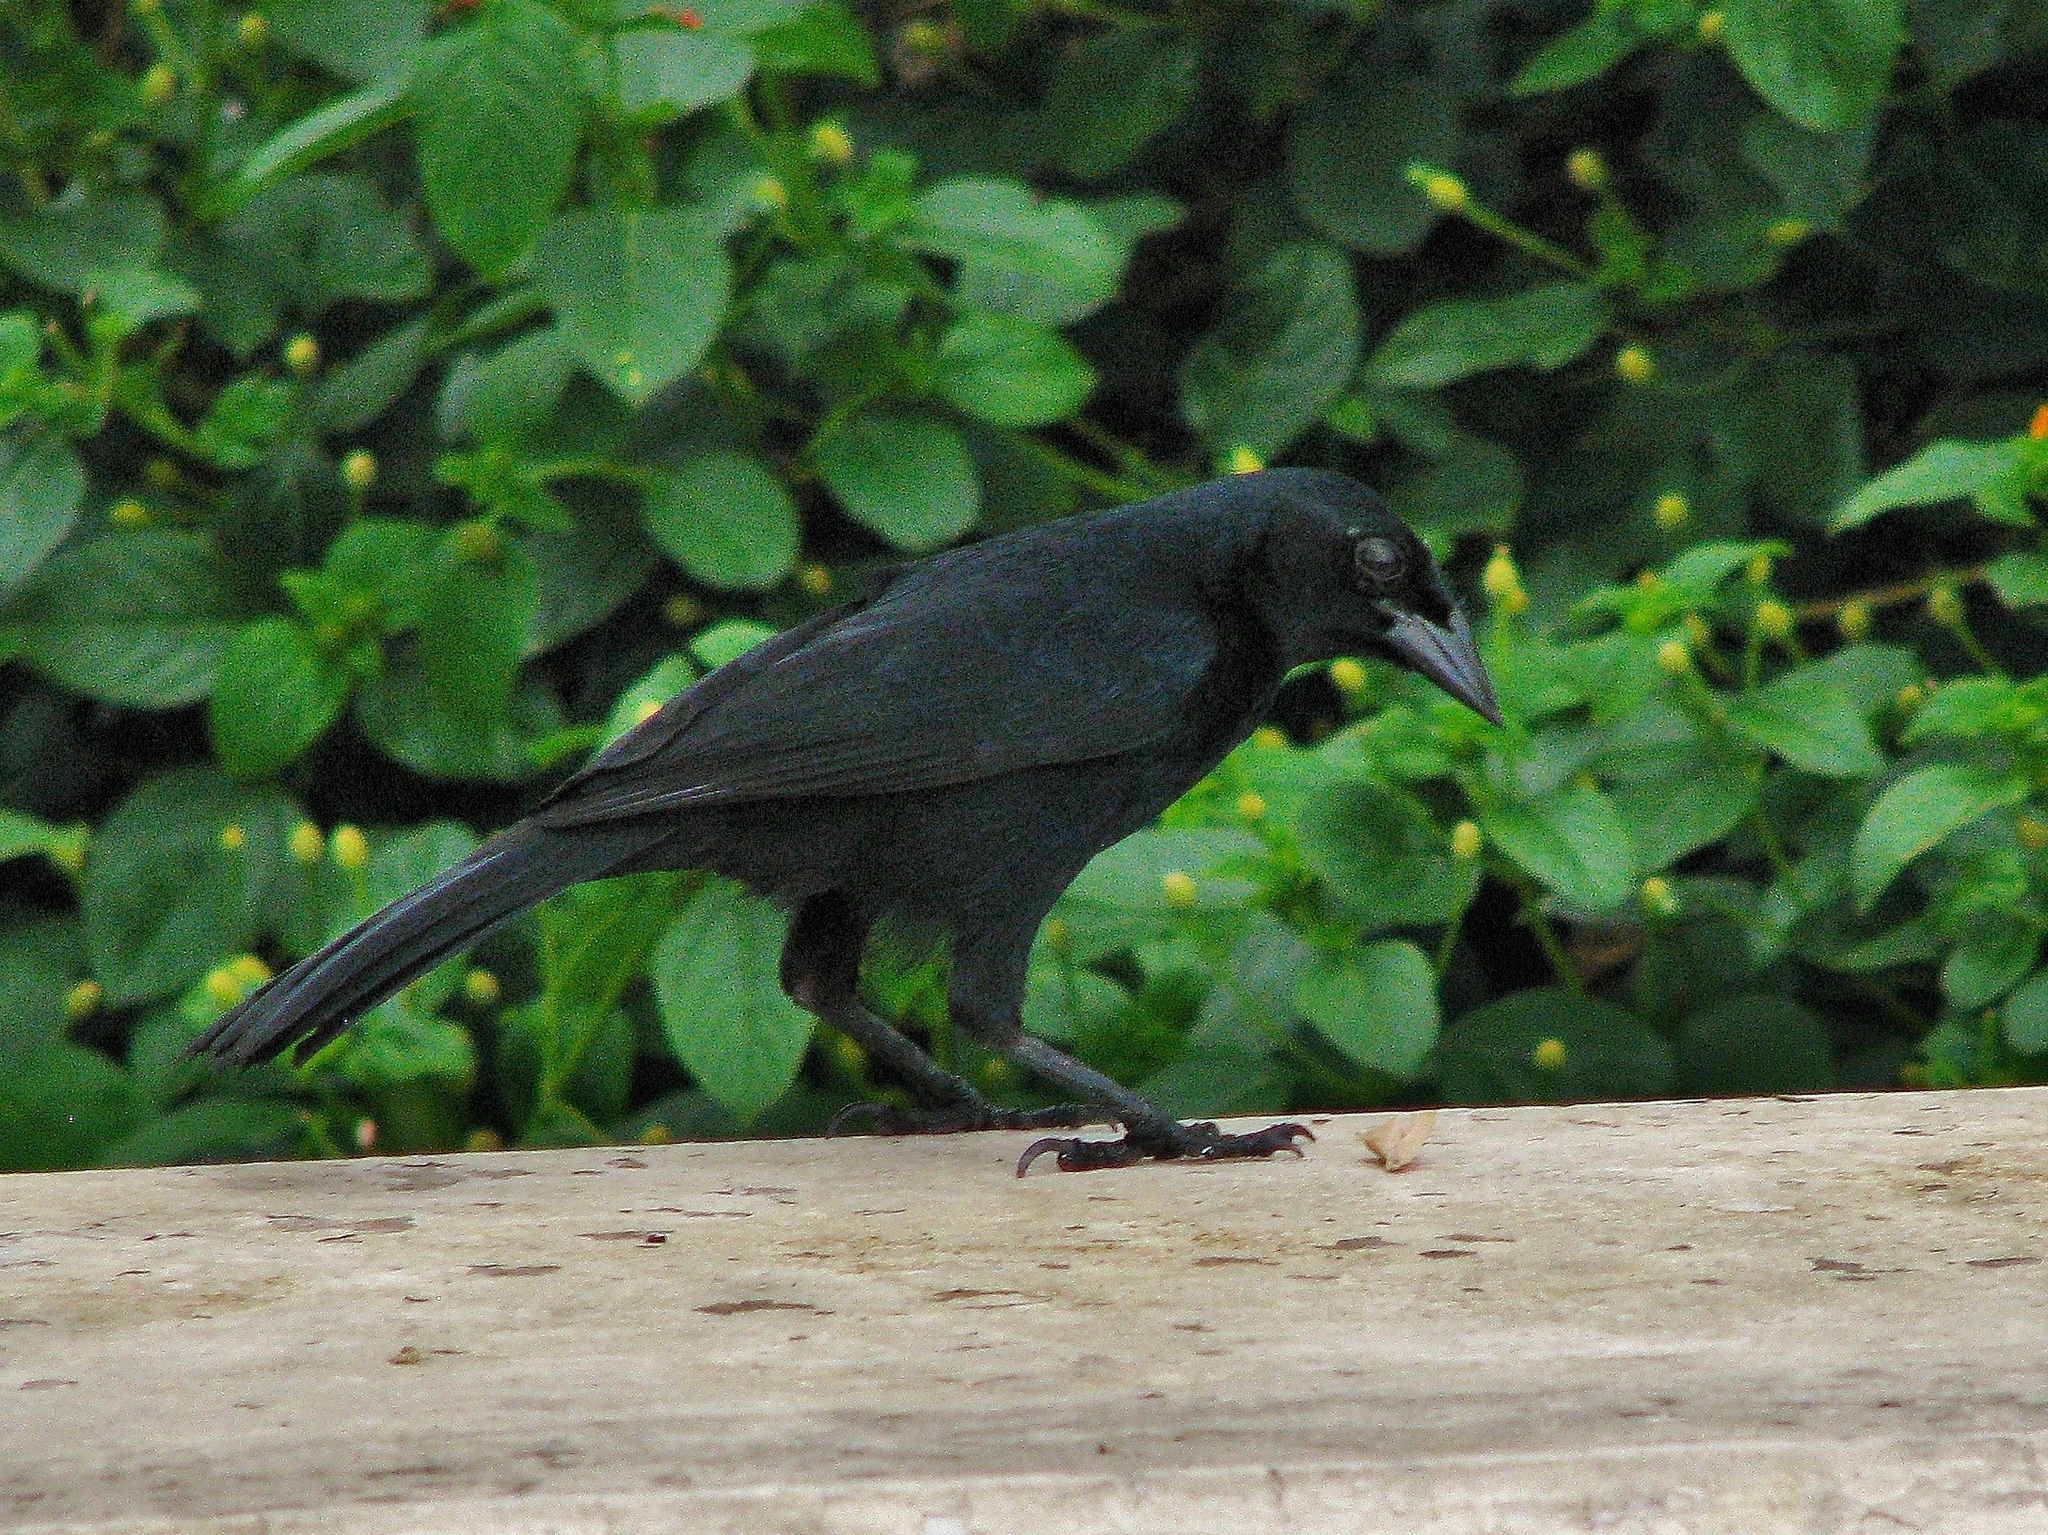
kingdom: Animalia
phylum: Chordata
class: Aves
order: Passeriformes
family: Icteridae
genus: Dives
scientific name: Dives warczewiczi
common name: Scrub blackbird
